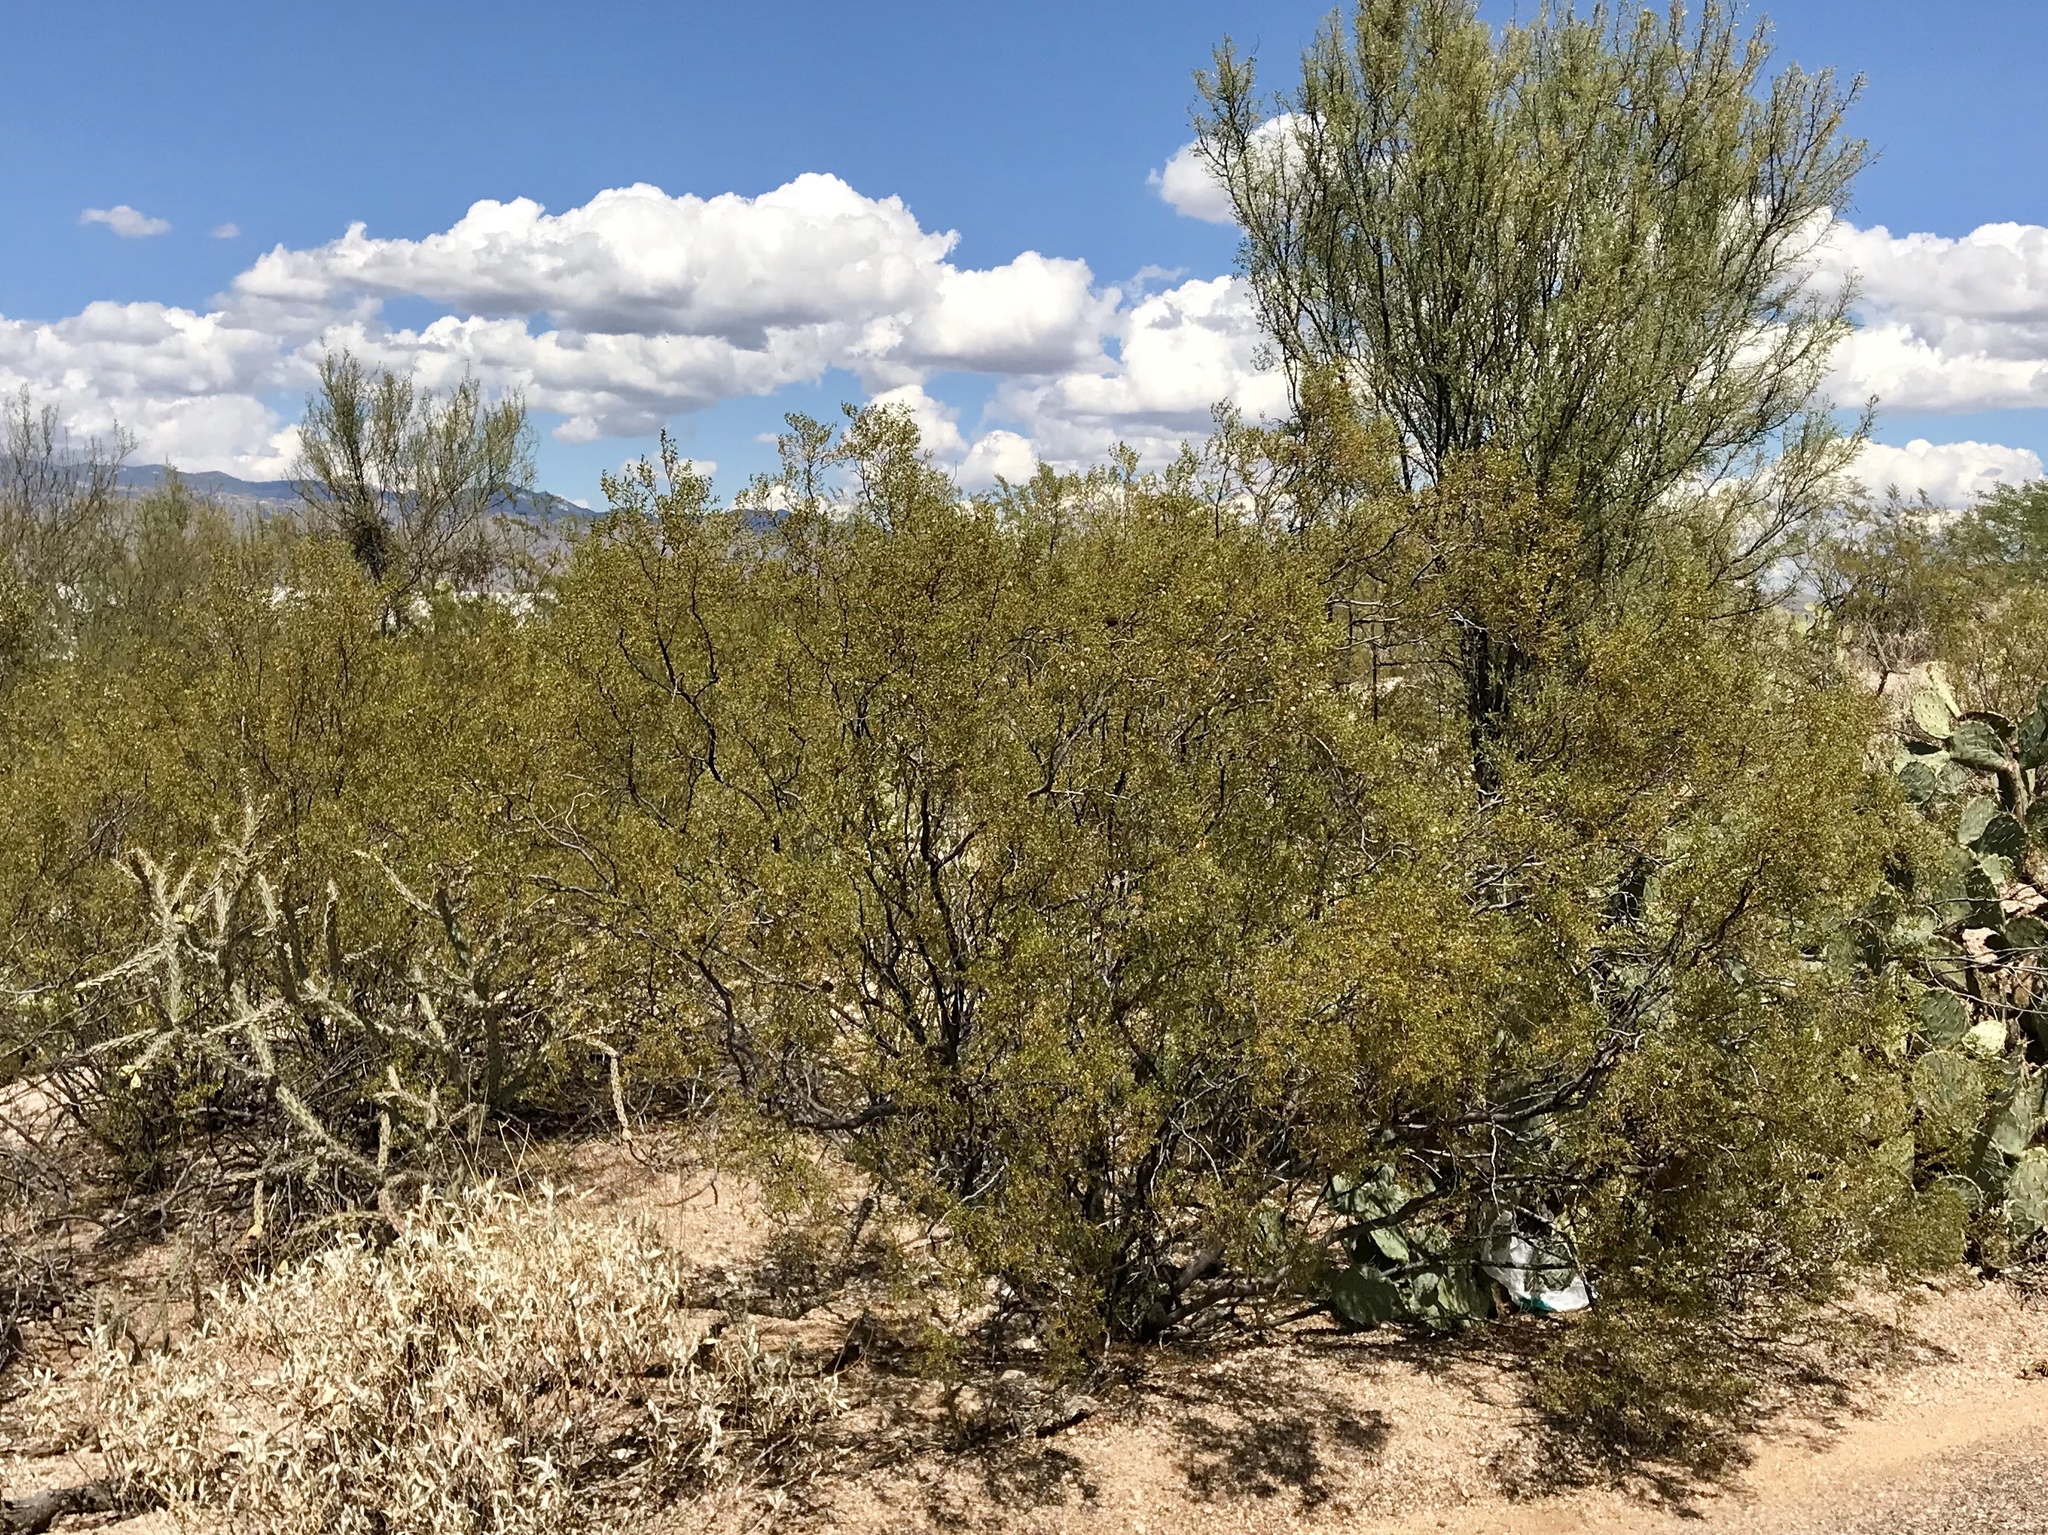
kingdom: Plantae
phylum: Tracheophyta
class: Magnoliopsida
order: Zygophyllales
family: Zygophyllaceae
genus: Larrea
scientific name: Larrea tridentata
